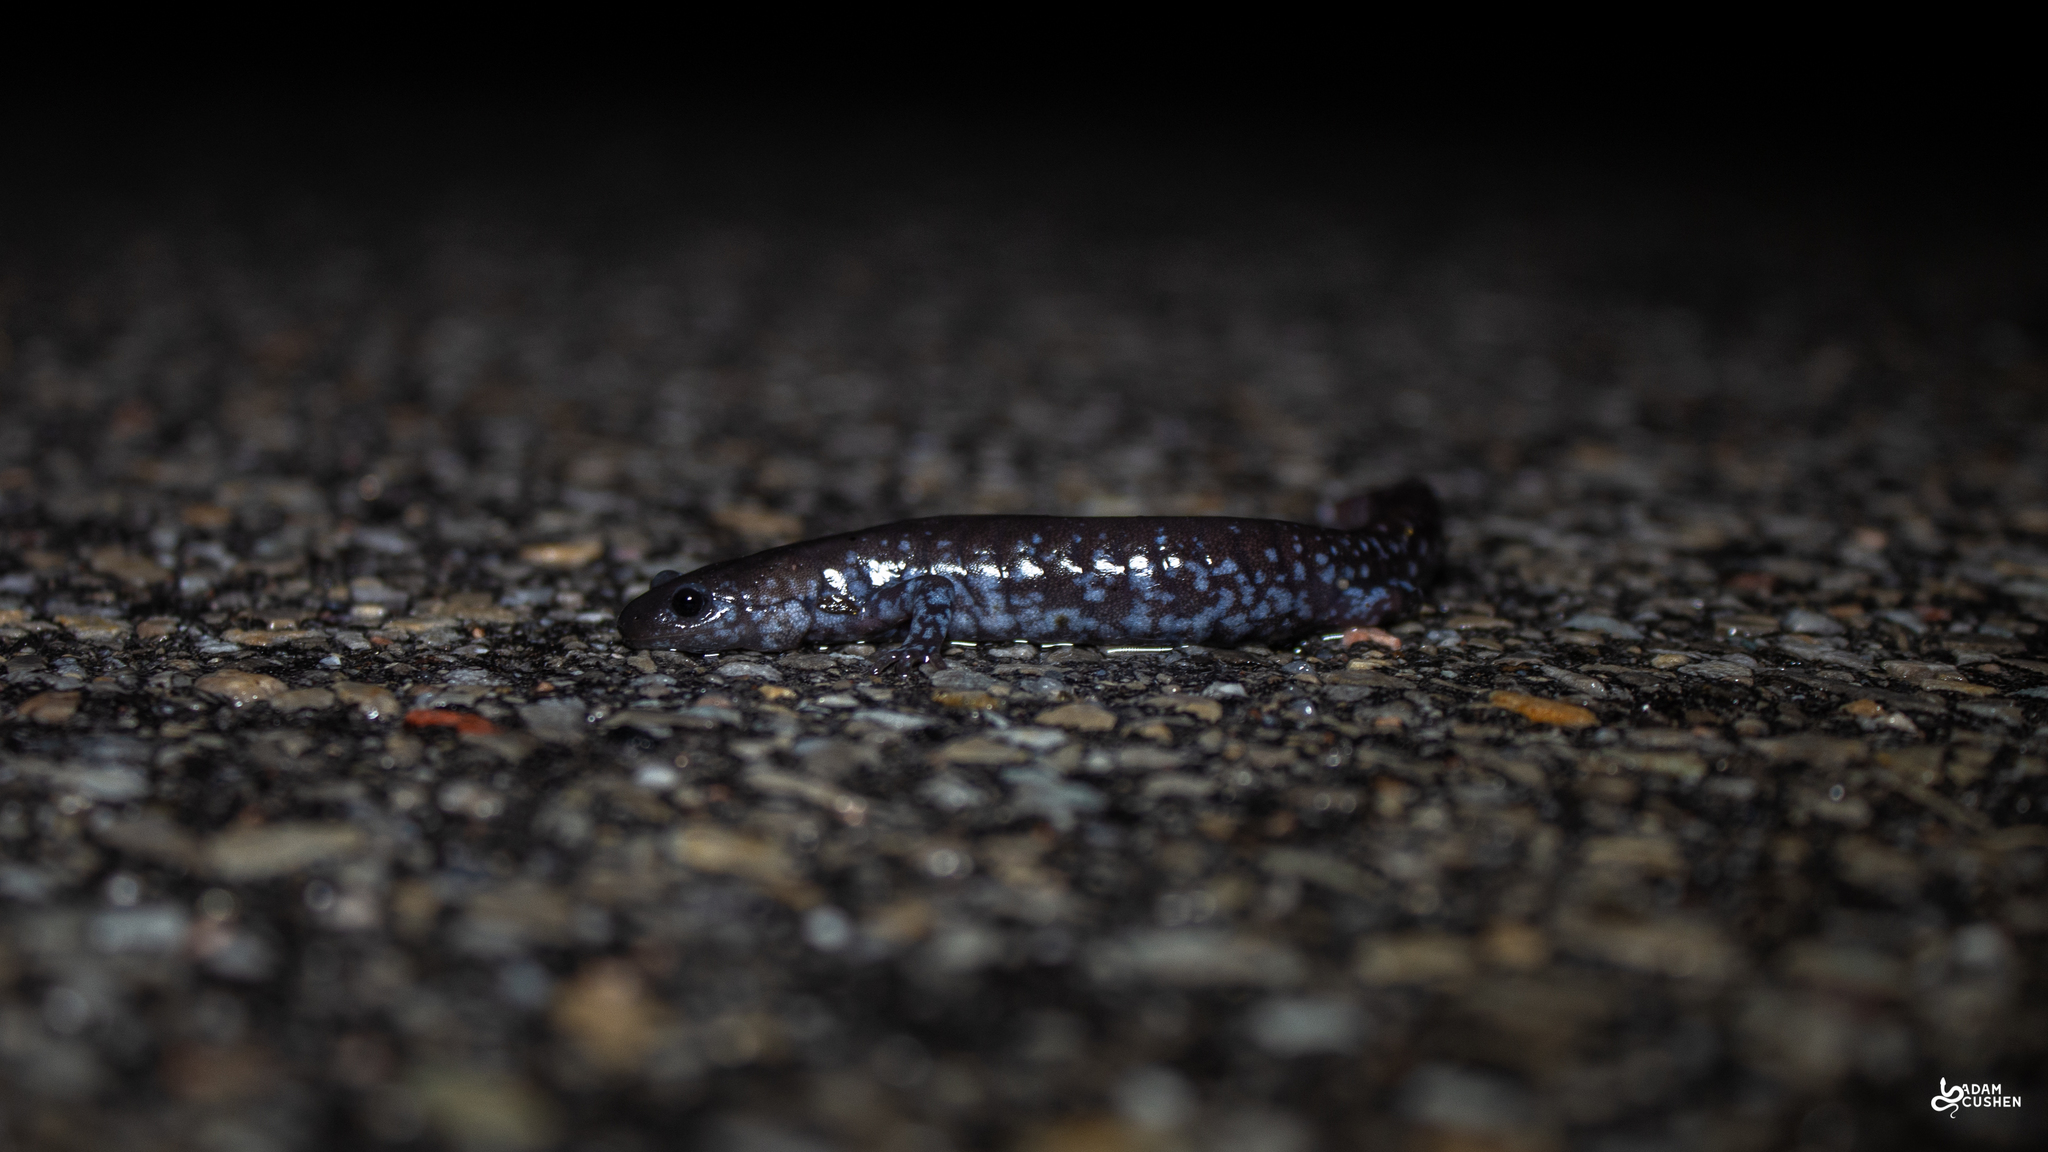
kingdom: Animalia
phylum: Chordata
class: Amphibia
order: Caudata
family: Ambystomatidae
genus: Ambystoma
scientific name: Ambystoma laterale
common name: Blue-spotted salamander
